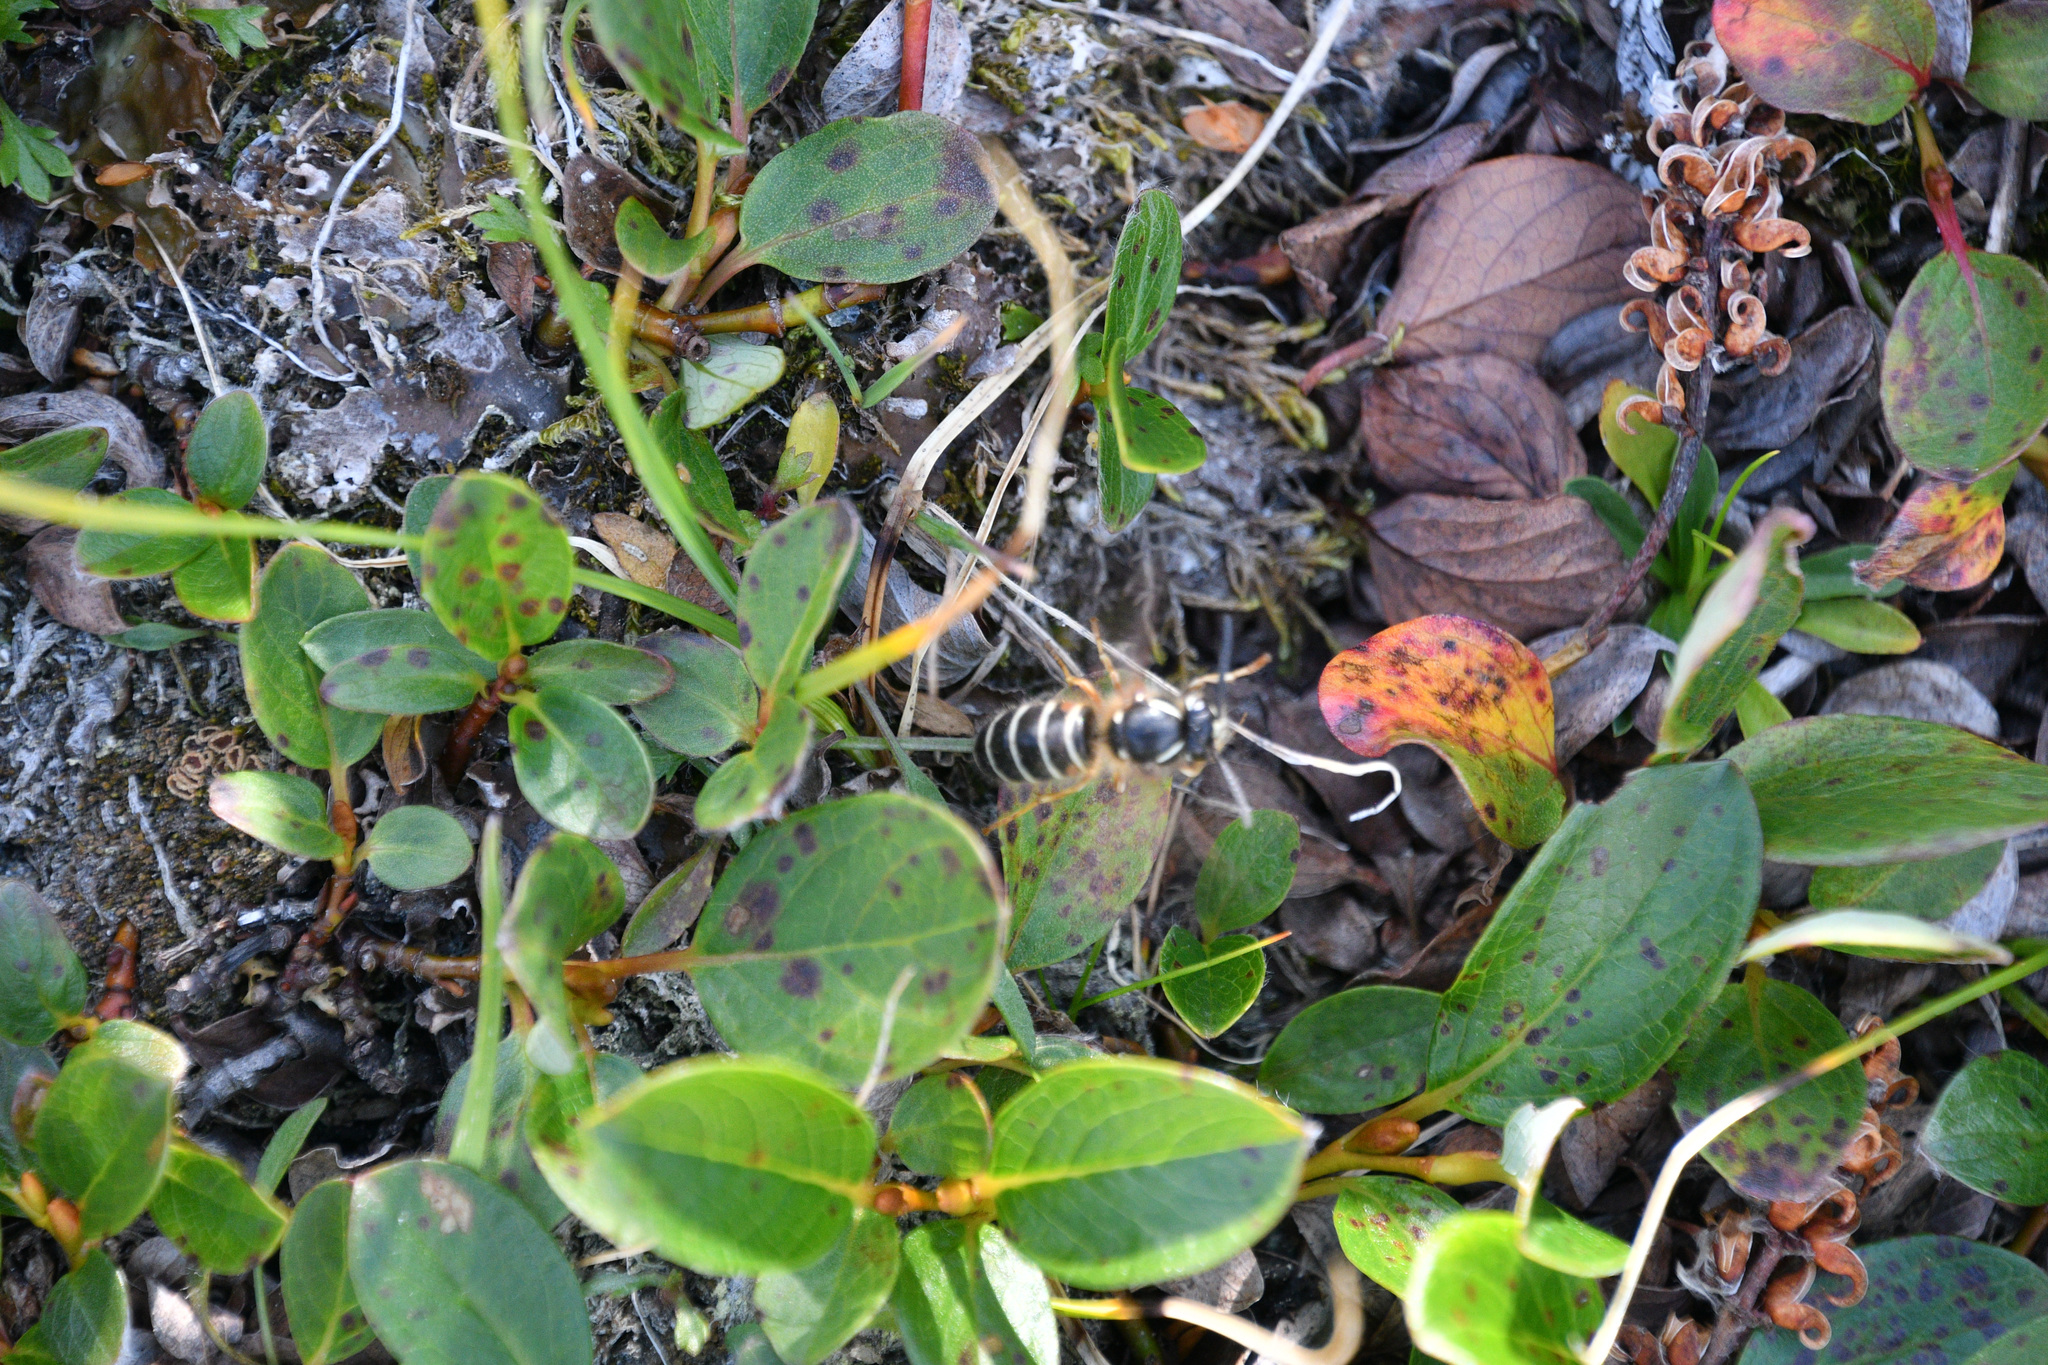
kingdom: Animalia
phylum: Arthropoda
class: Insecta
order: Hymenoptera
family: Vespidae
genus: Dolichovespula
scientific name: Dolichovespula norwegica
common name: Norwegian wasp
